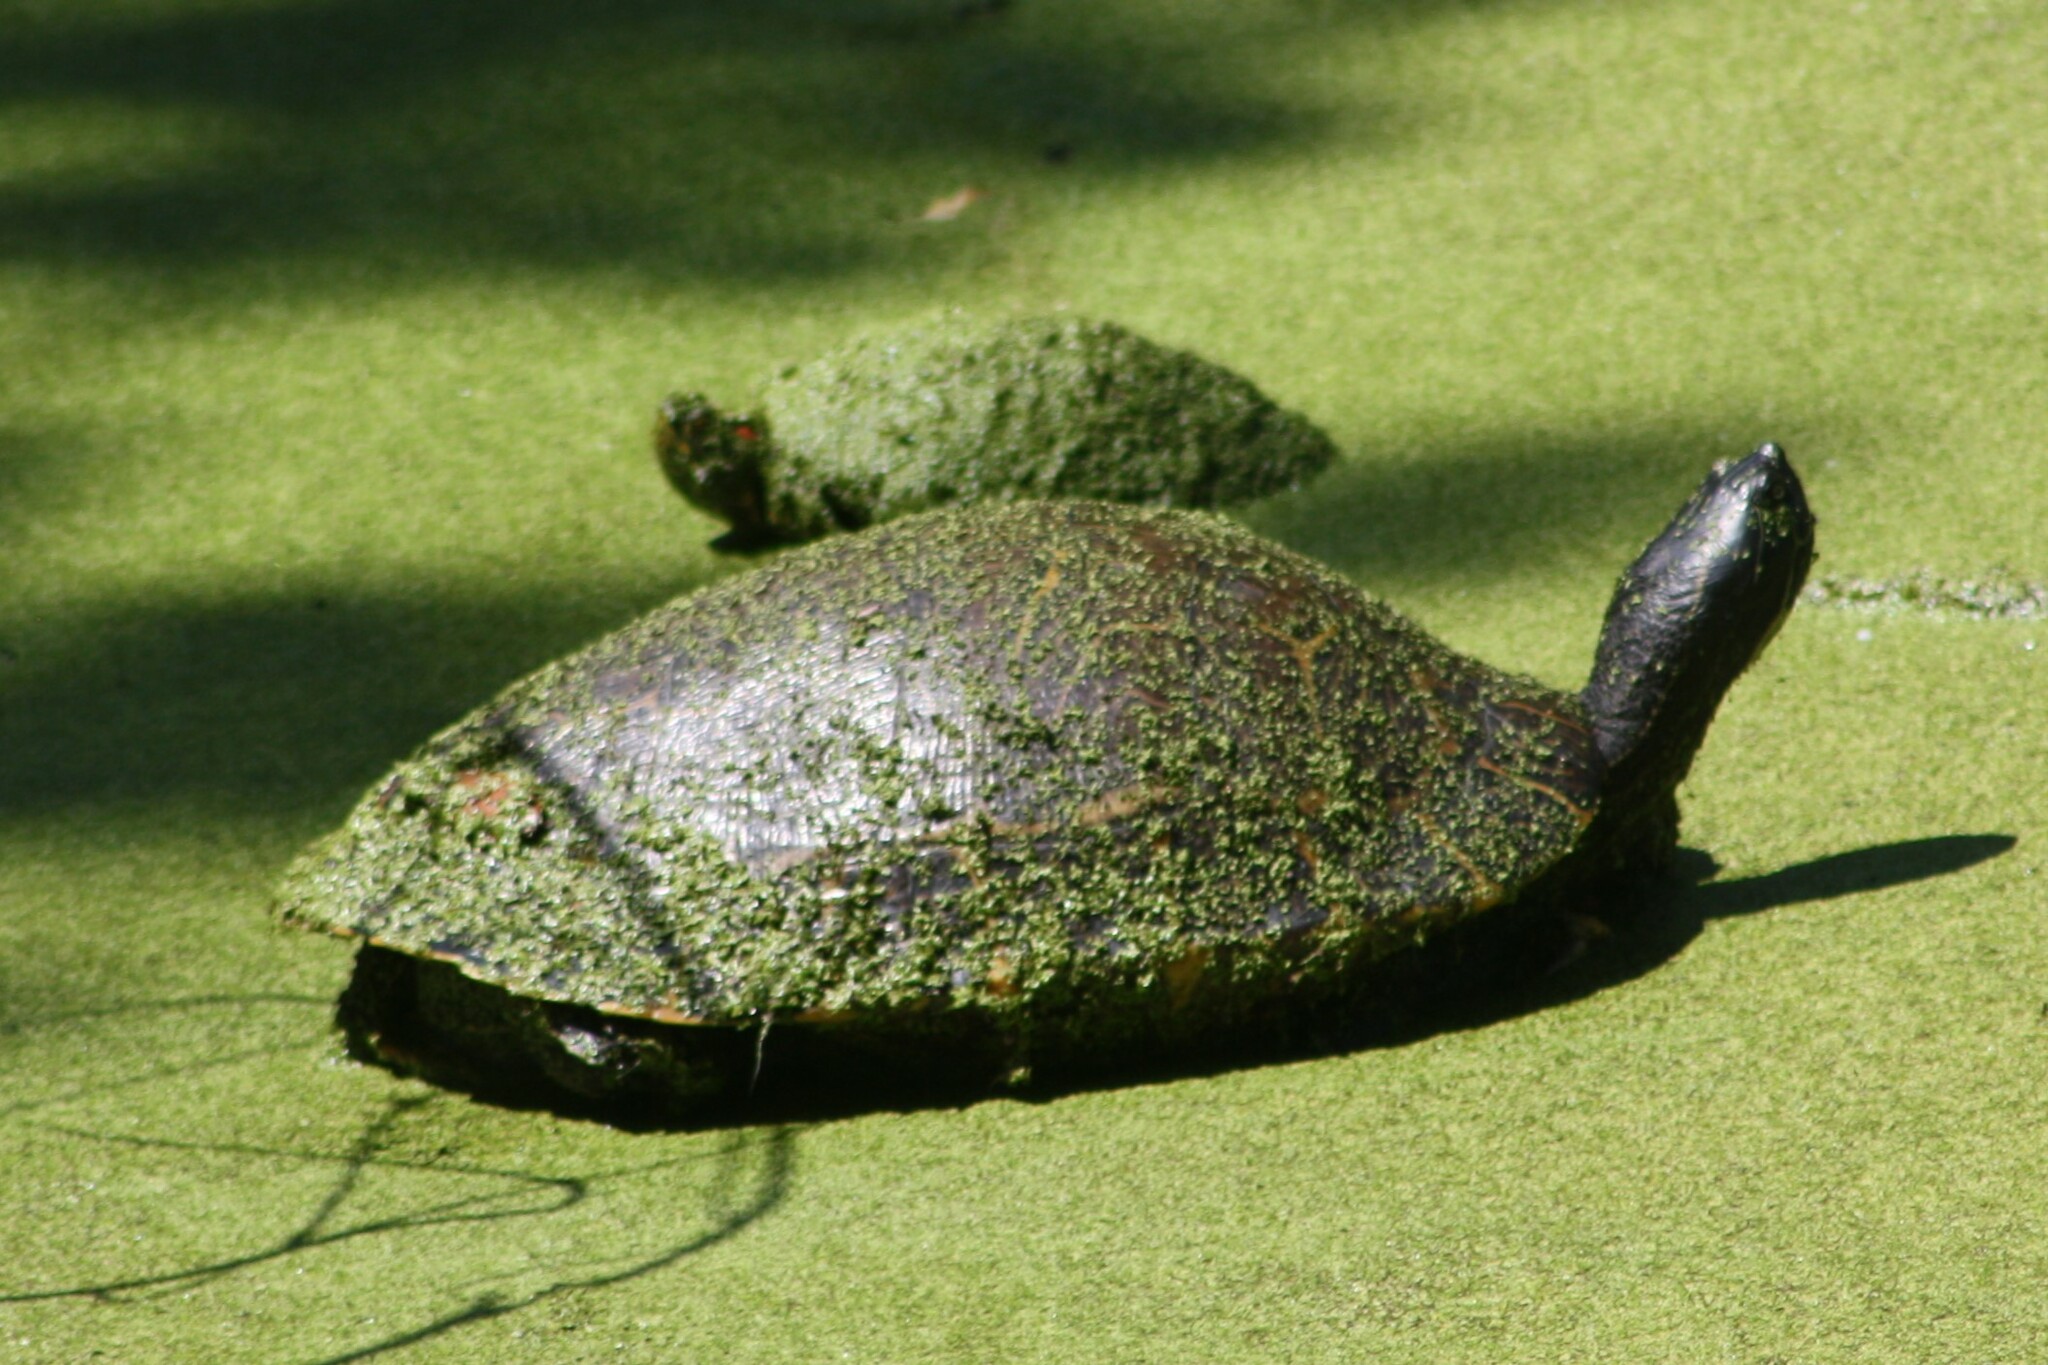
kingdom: Animalia
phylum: Chordata
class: Testudines
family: Emydidae
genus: Pseudemys
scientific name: Pseudemys concinna
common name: Eastern river cooter
